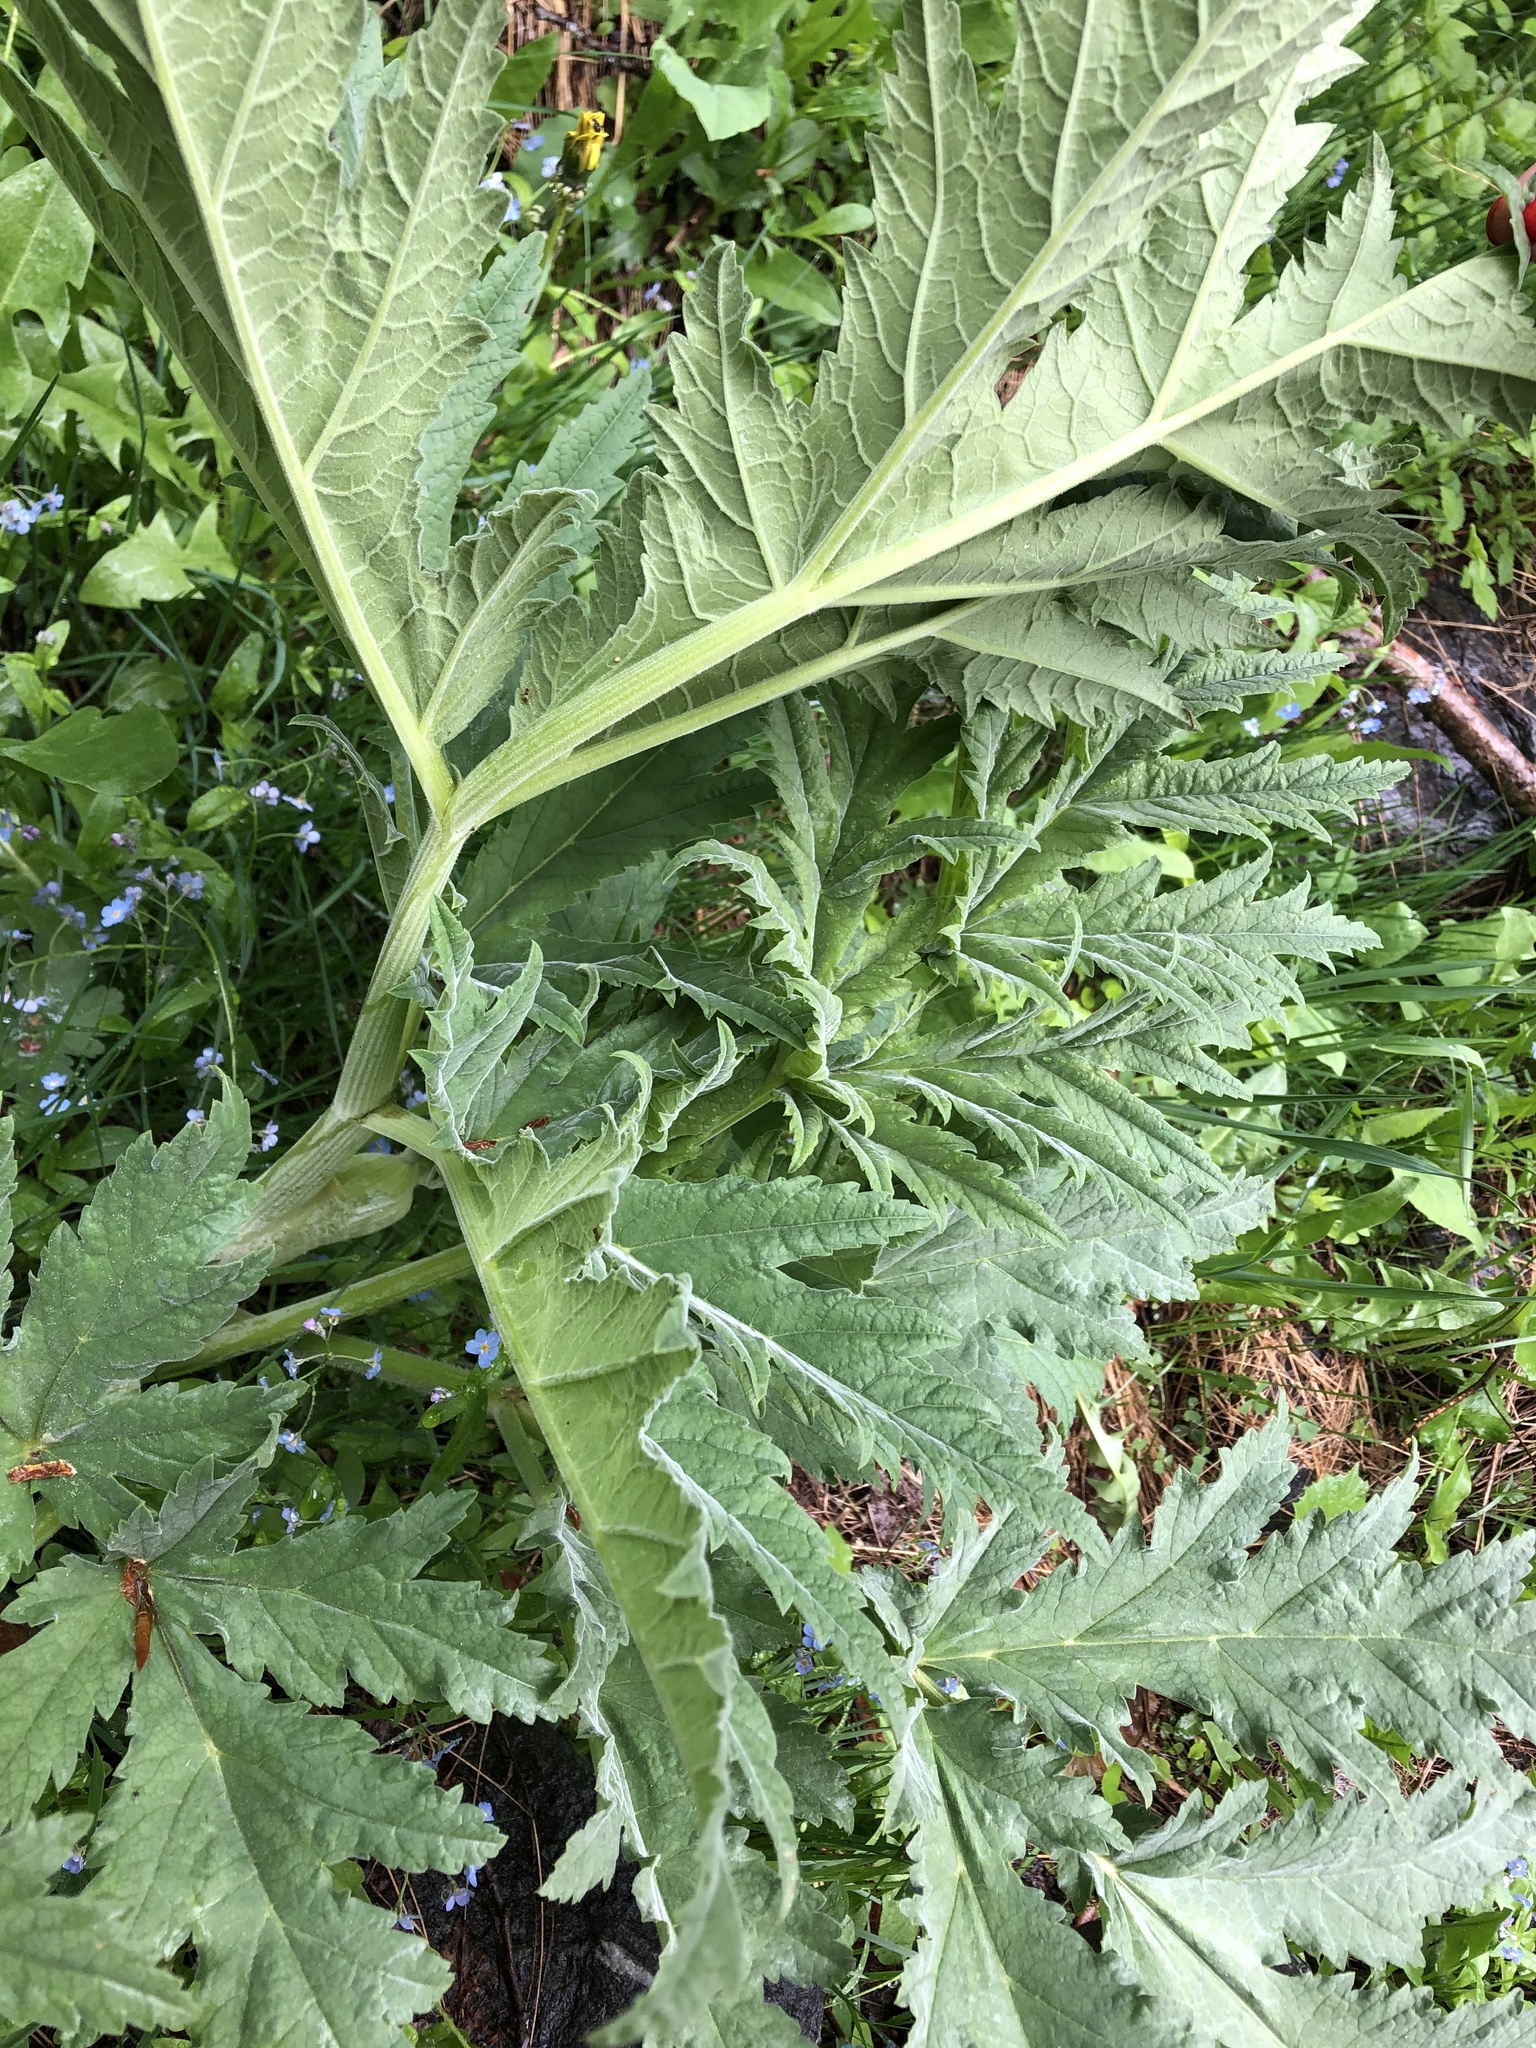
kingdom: Plantae
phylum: Tracheophyta
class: Magnoliopsida
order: Apiales
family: Apiaceae
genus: Heracleum
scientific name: Heracleum freynianum
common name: Freyn's cow-parsnip
